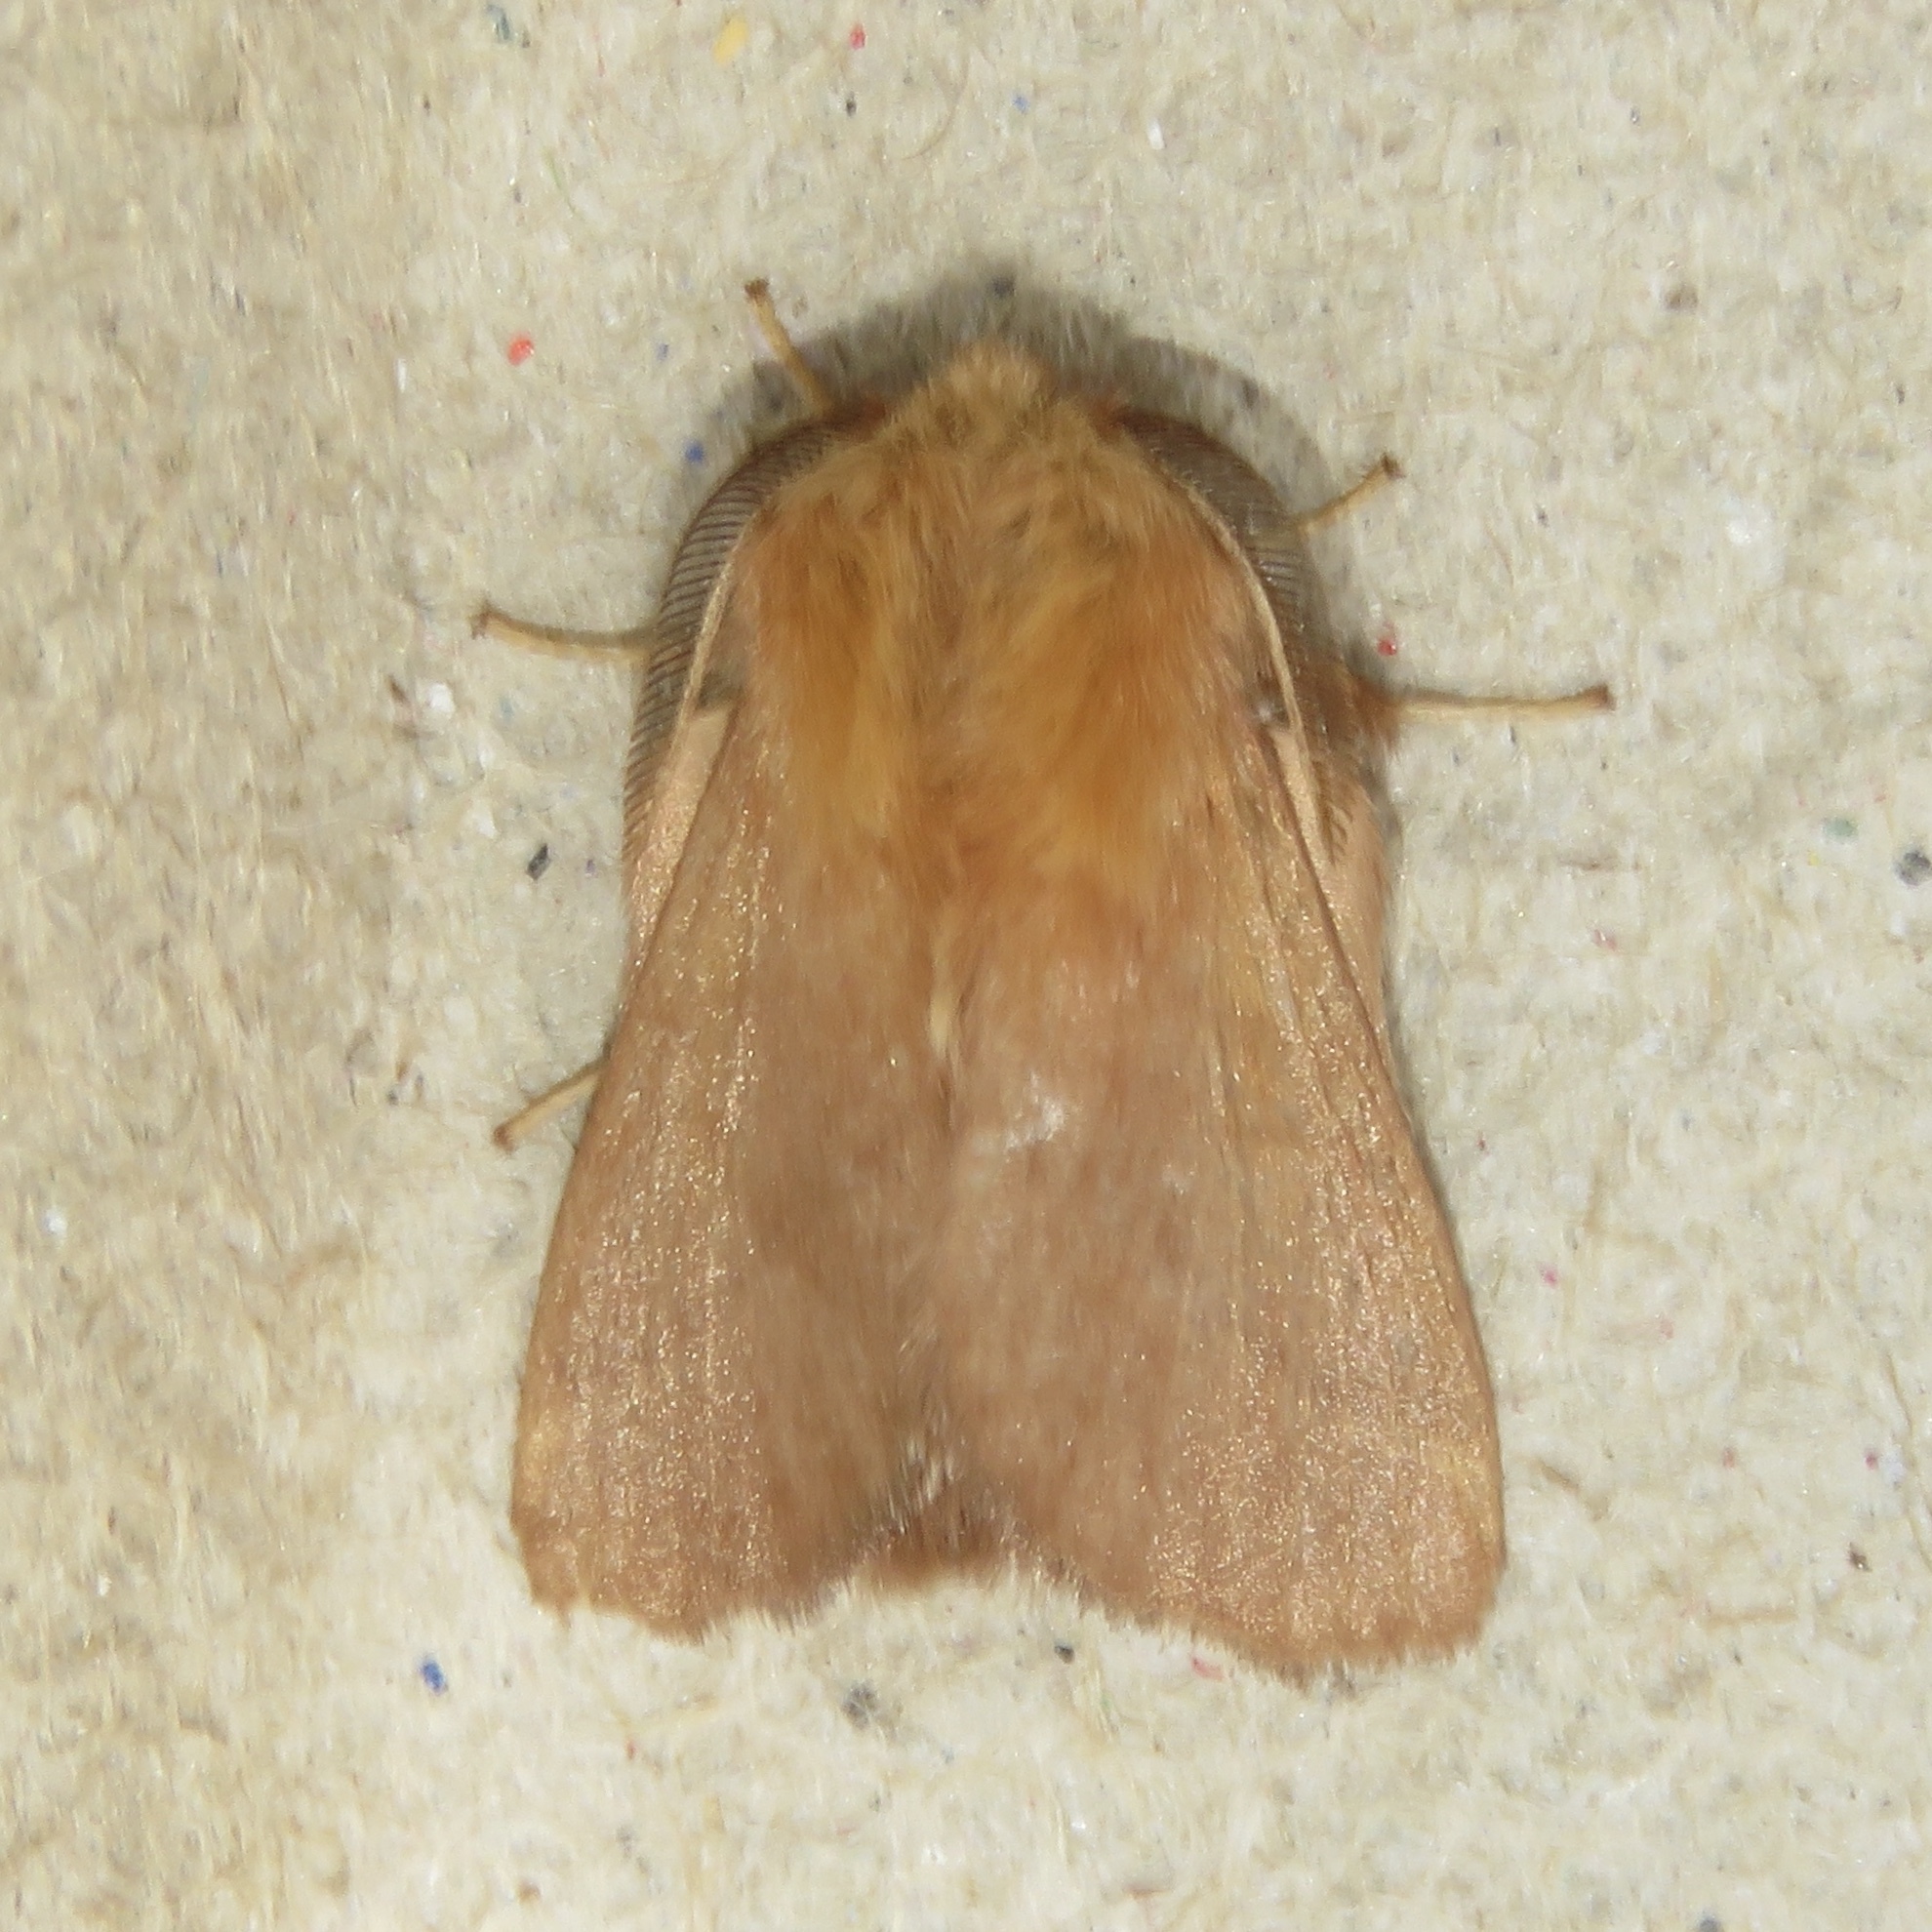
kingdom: Animalia
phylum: Arthropoda
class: Insecta
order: Lepidoptera
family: Lasiocampidae
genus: Malacosoma
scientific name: Malacosoma disstria
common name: Forest tent caterpillar
